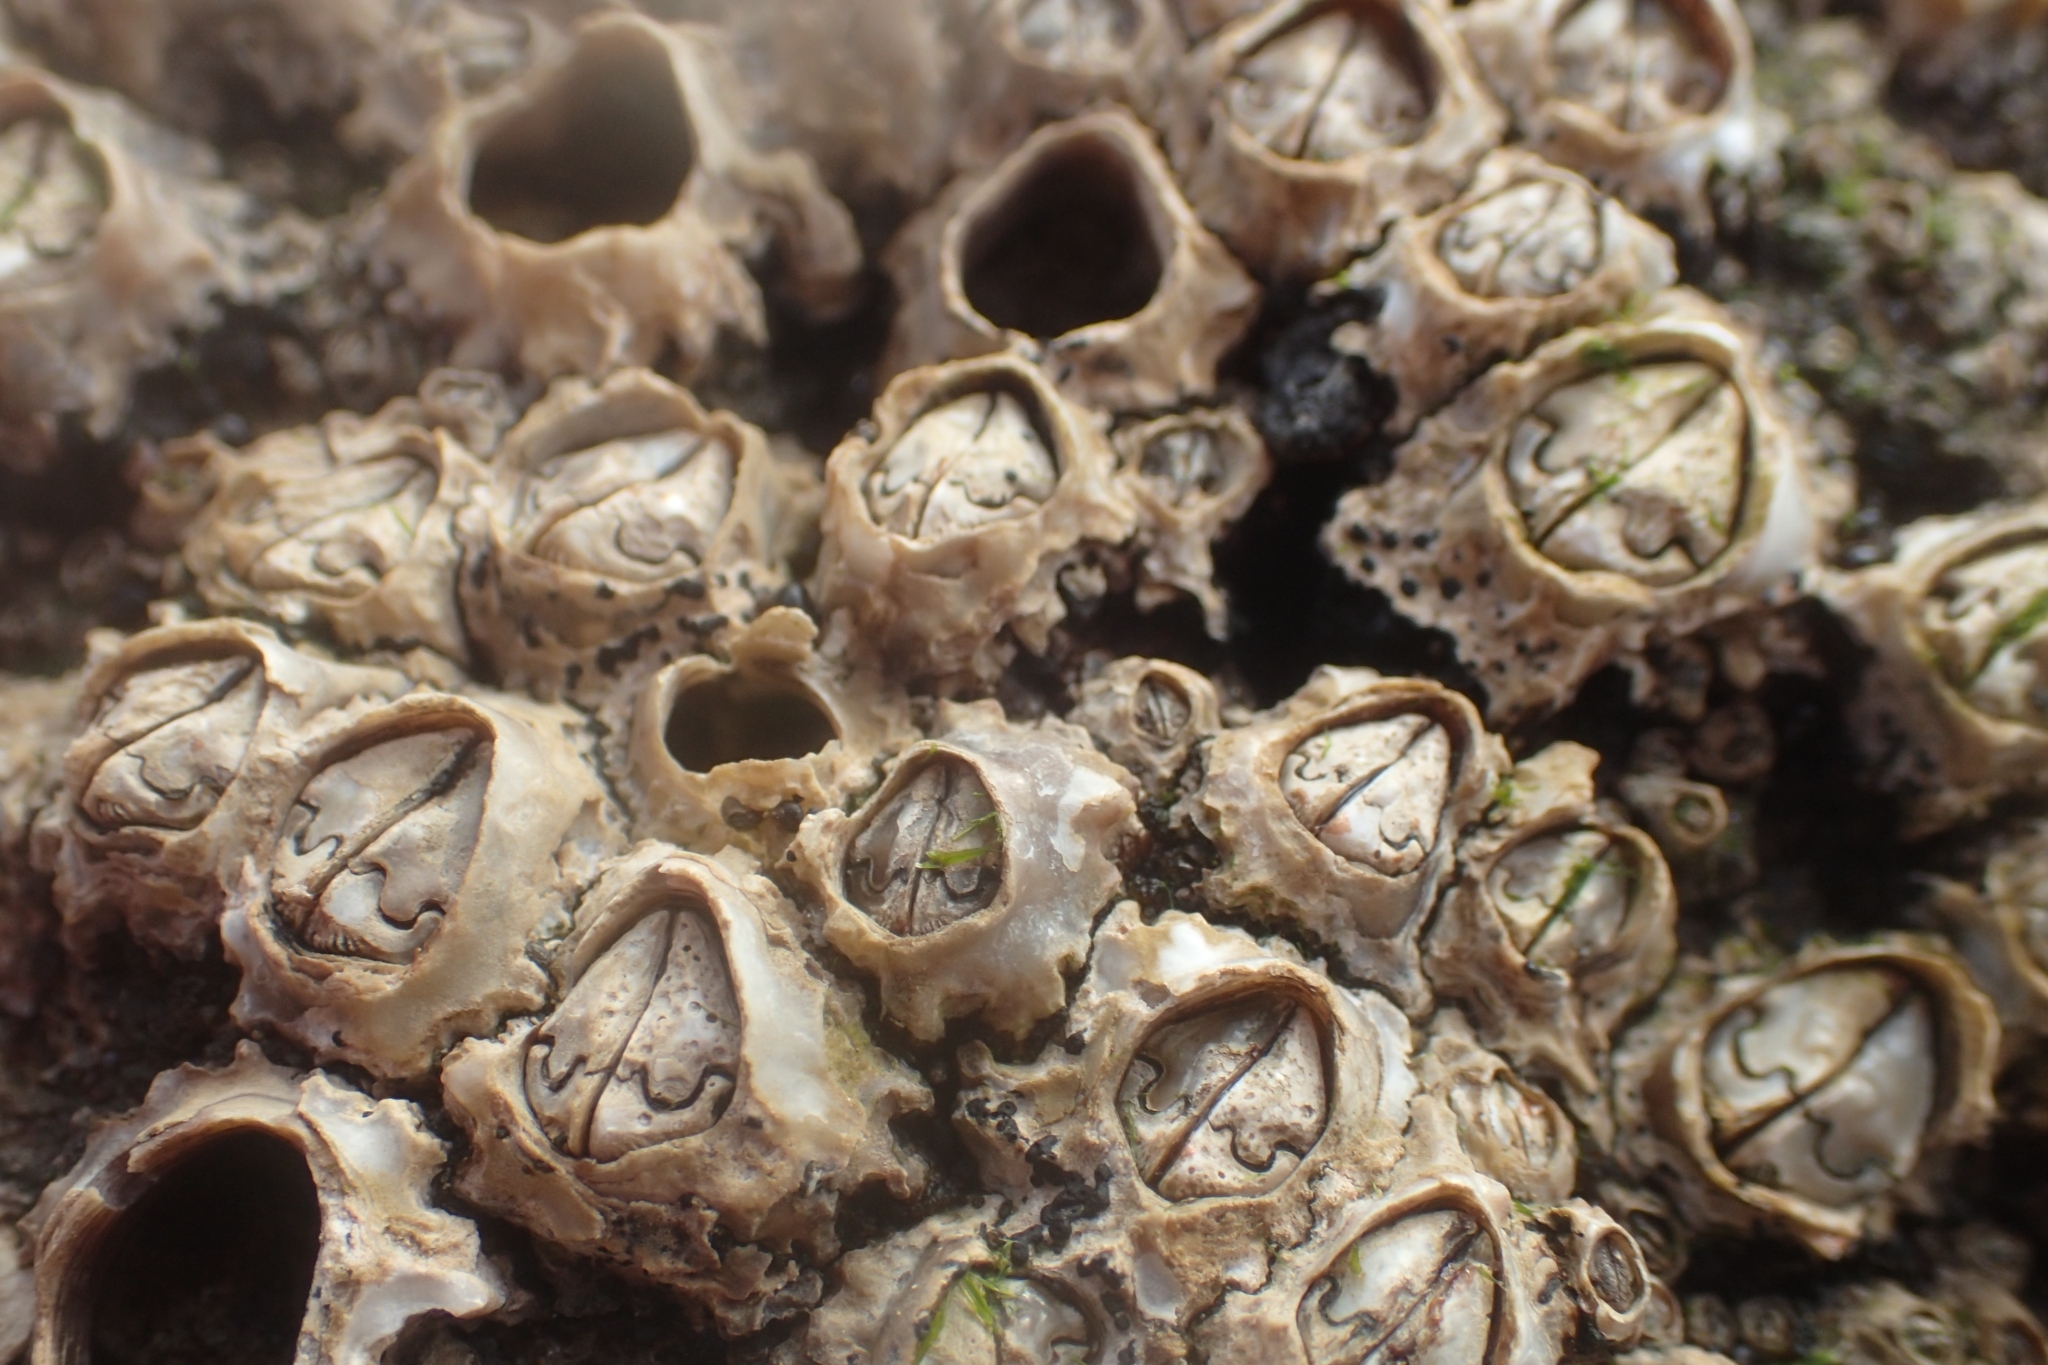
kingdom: Animalia
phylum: Arthropoda
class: Maxillopoda
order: Sessilia
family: Chthamalidae
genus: Chamaesipho
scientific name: Chamaesipho brunnea
